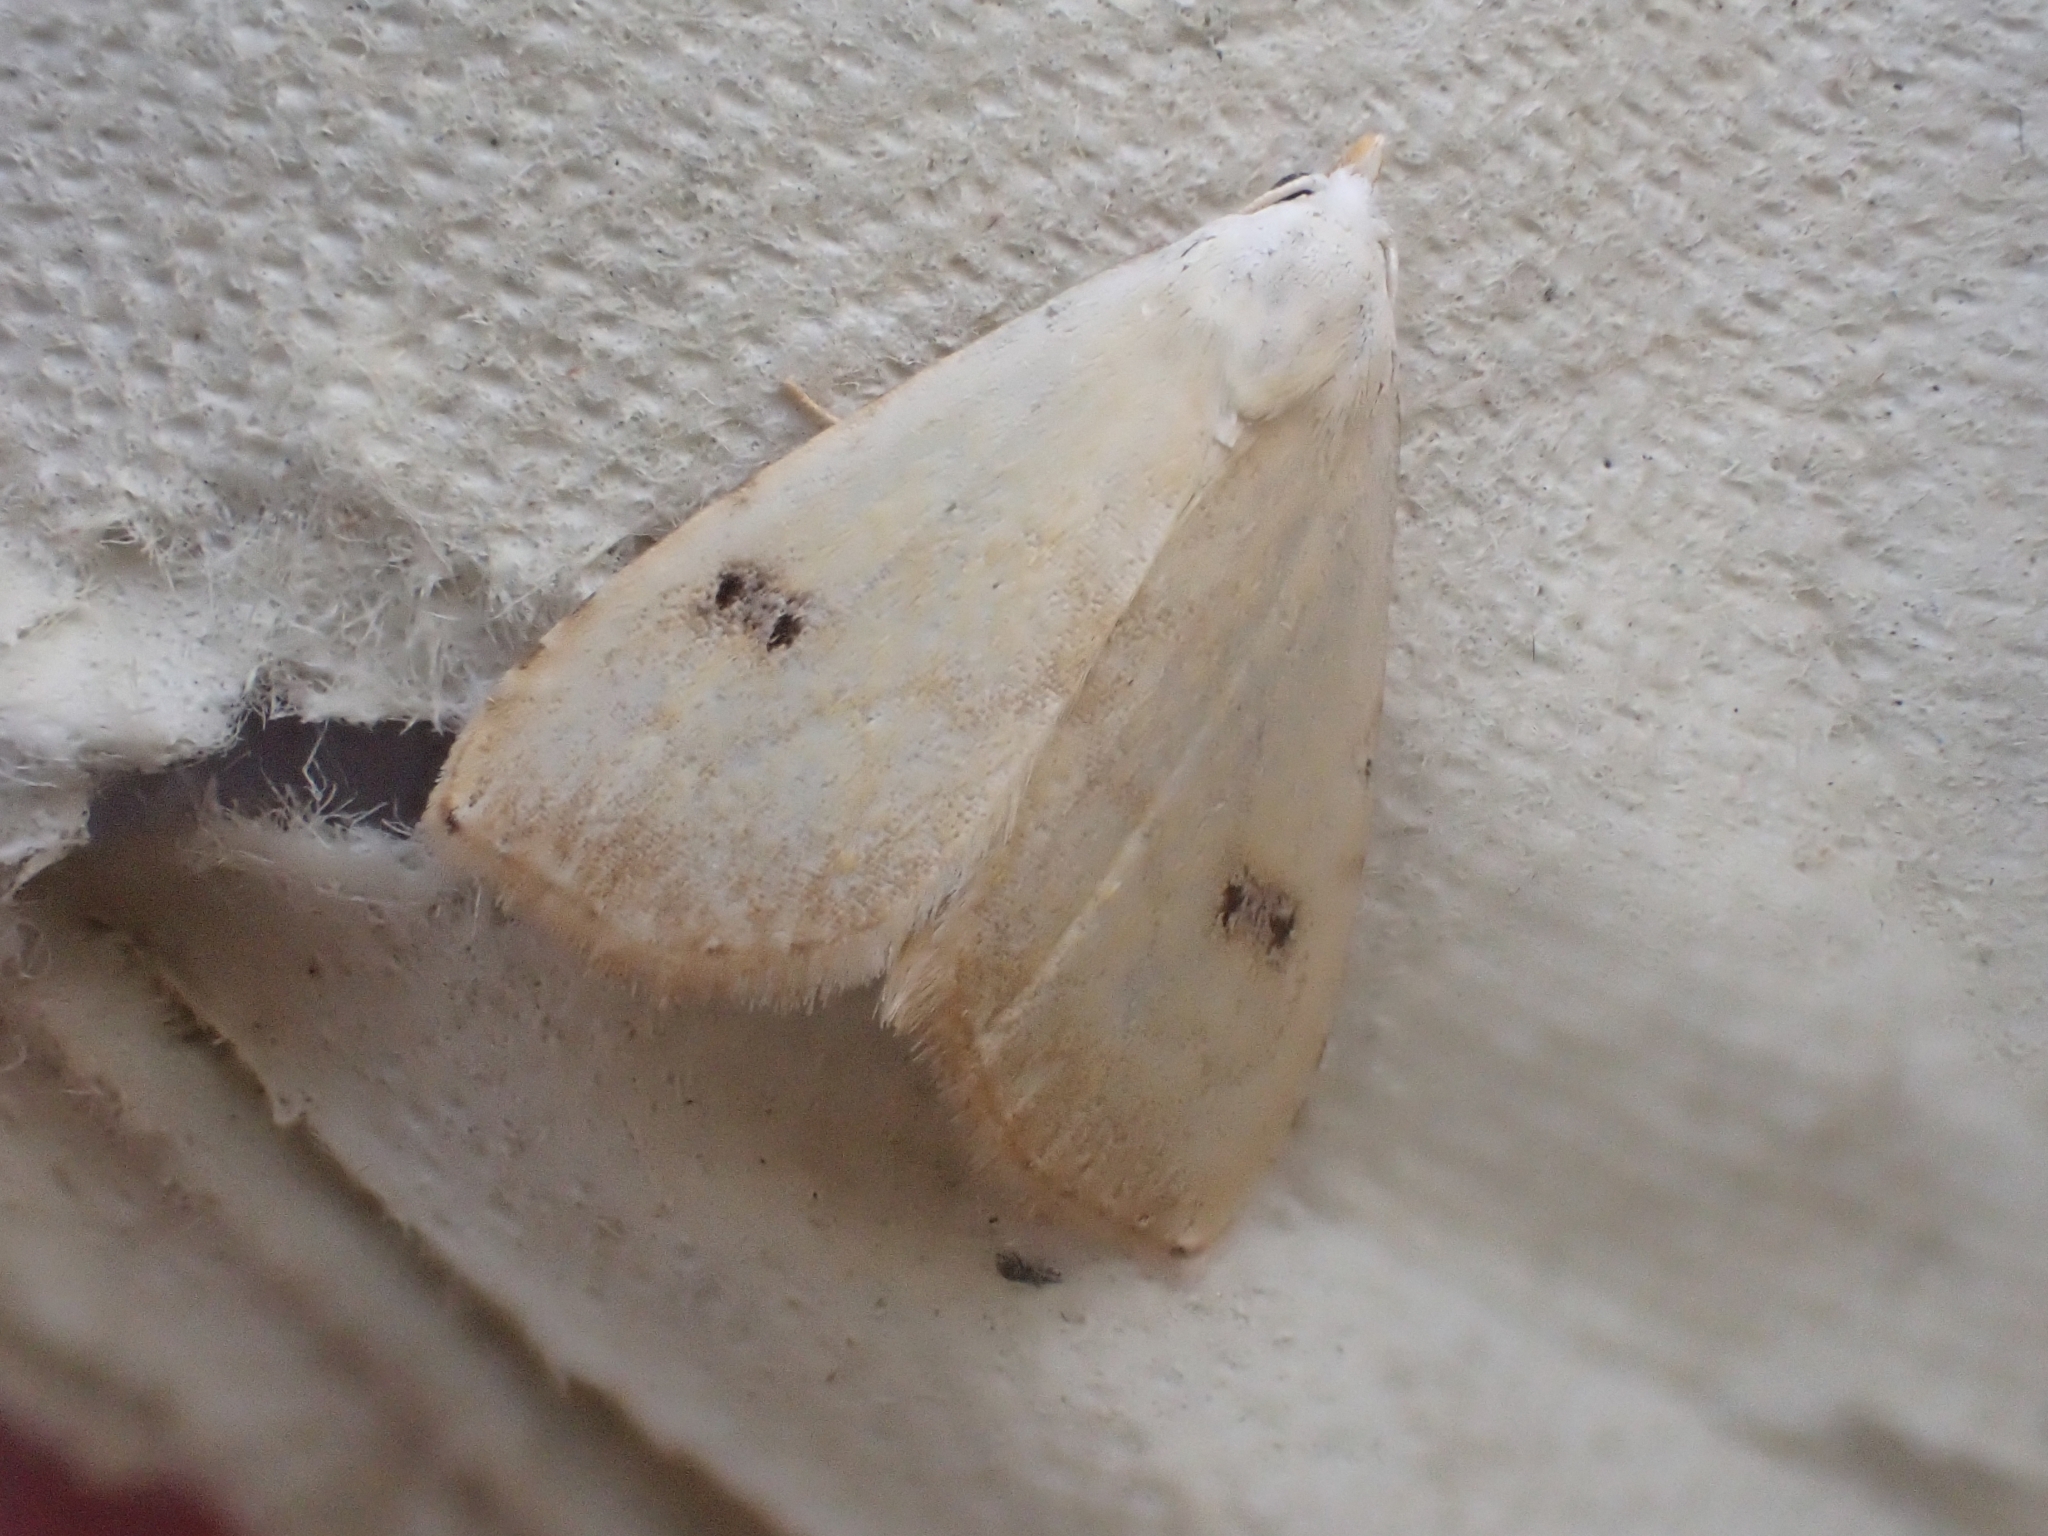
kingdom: Animalia
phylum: Arthropoda
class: Insecta
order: Lepidoptera
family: Erebidae
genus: Rivula
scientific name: Rivula sericealis
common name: Straw dot
